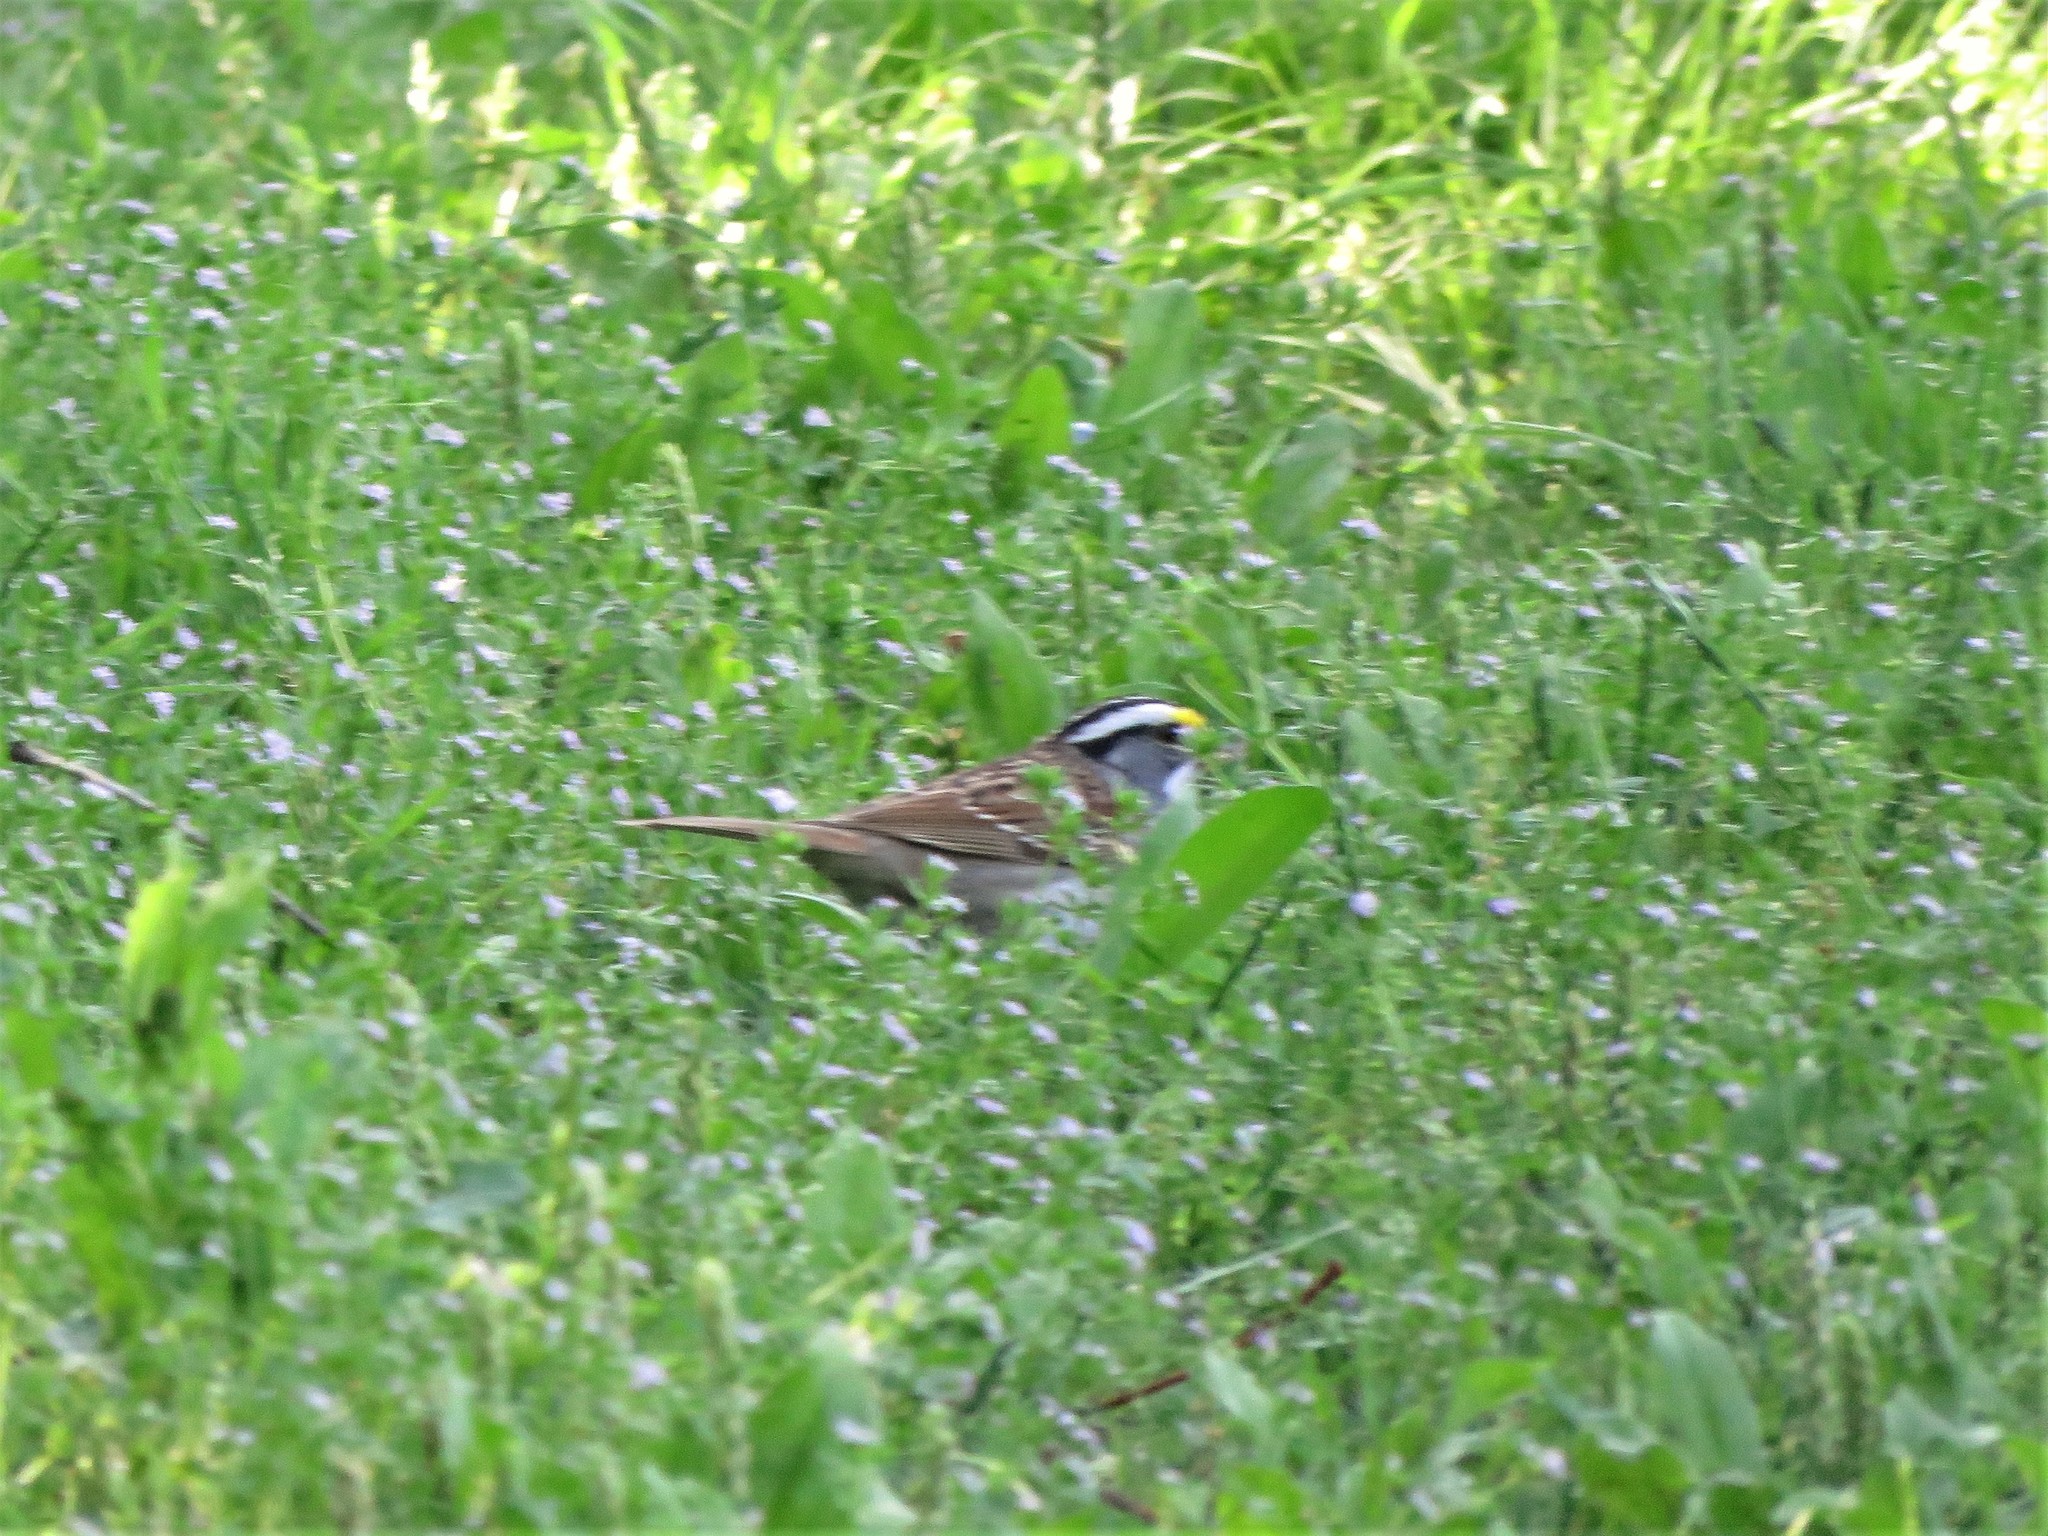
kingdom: Animalia
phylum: Chordata
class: Aves
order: Passeriformes
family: Passerellidae
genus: Zonotrichia
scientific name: Zonotrichia albicollis
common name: White-throated sparrow
